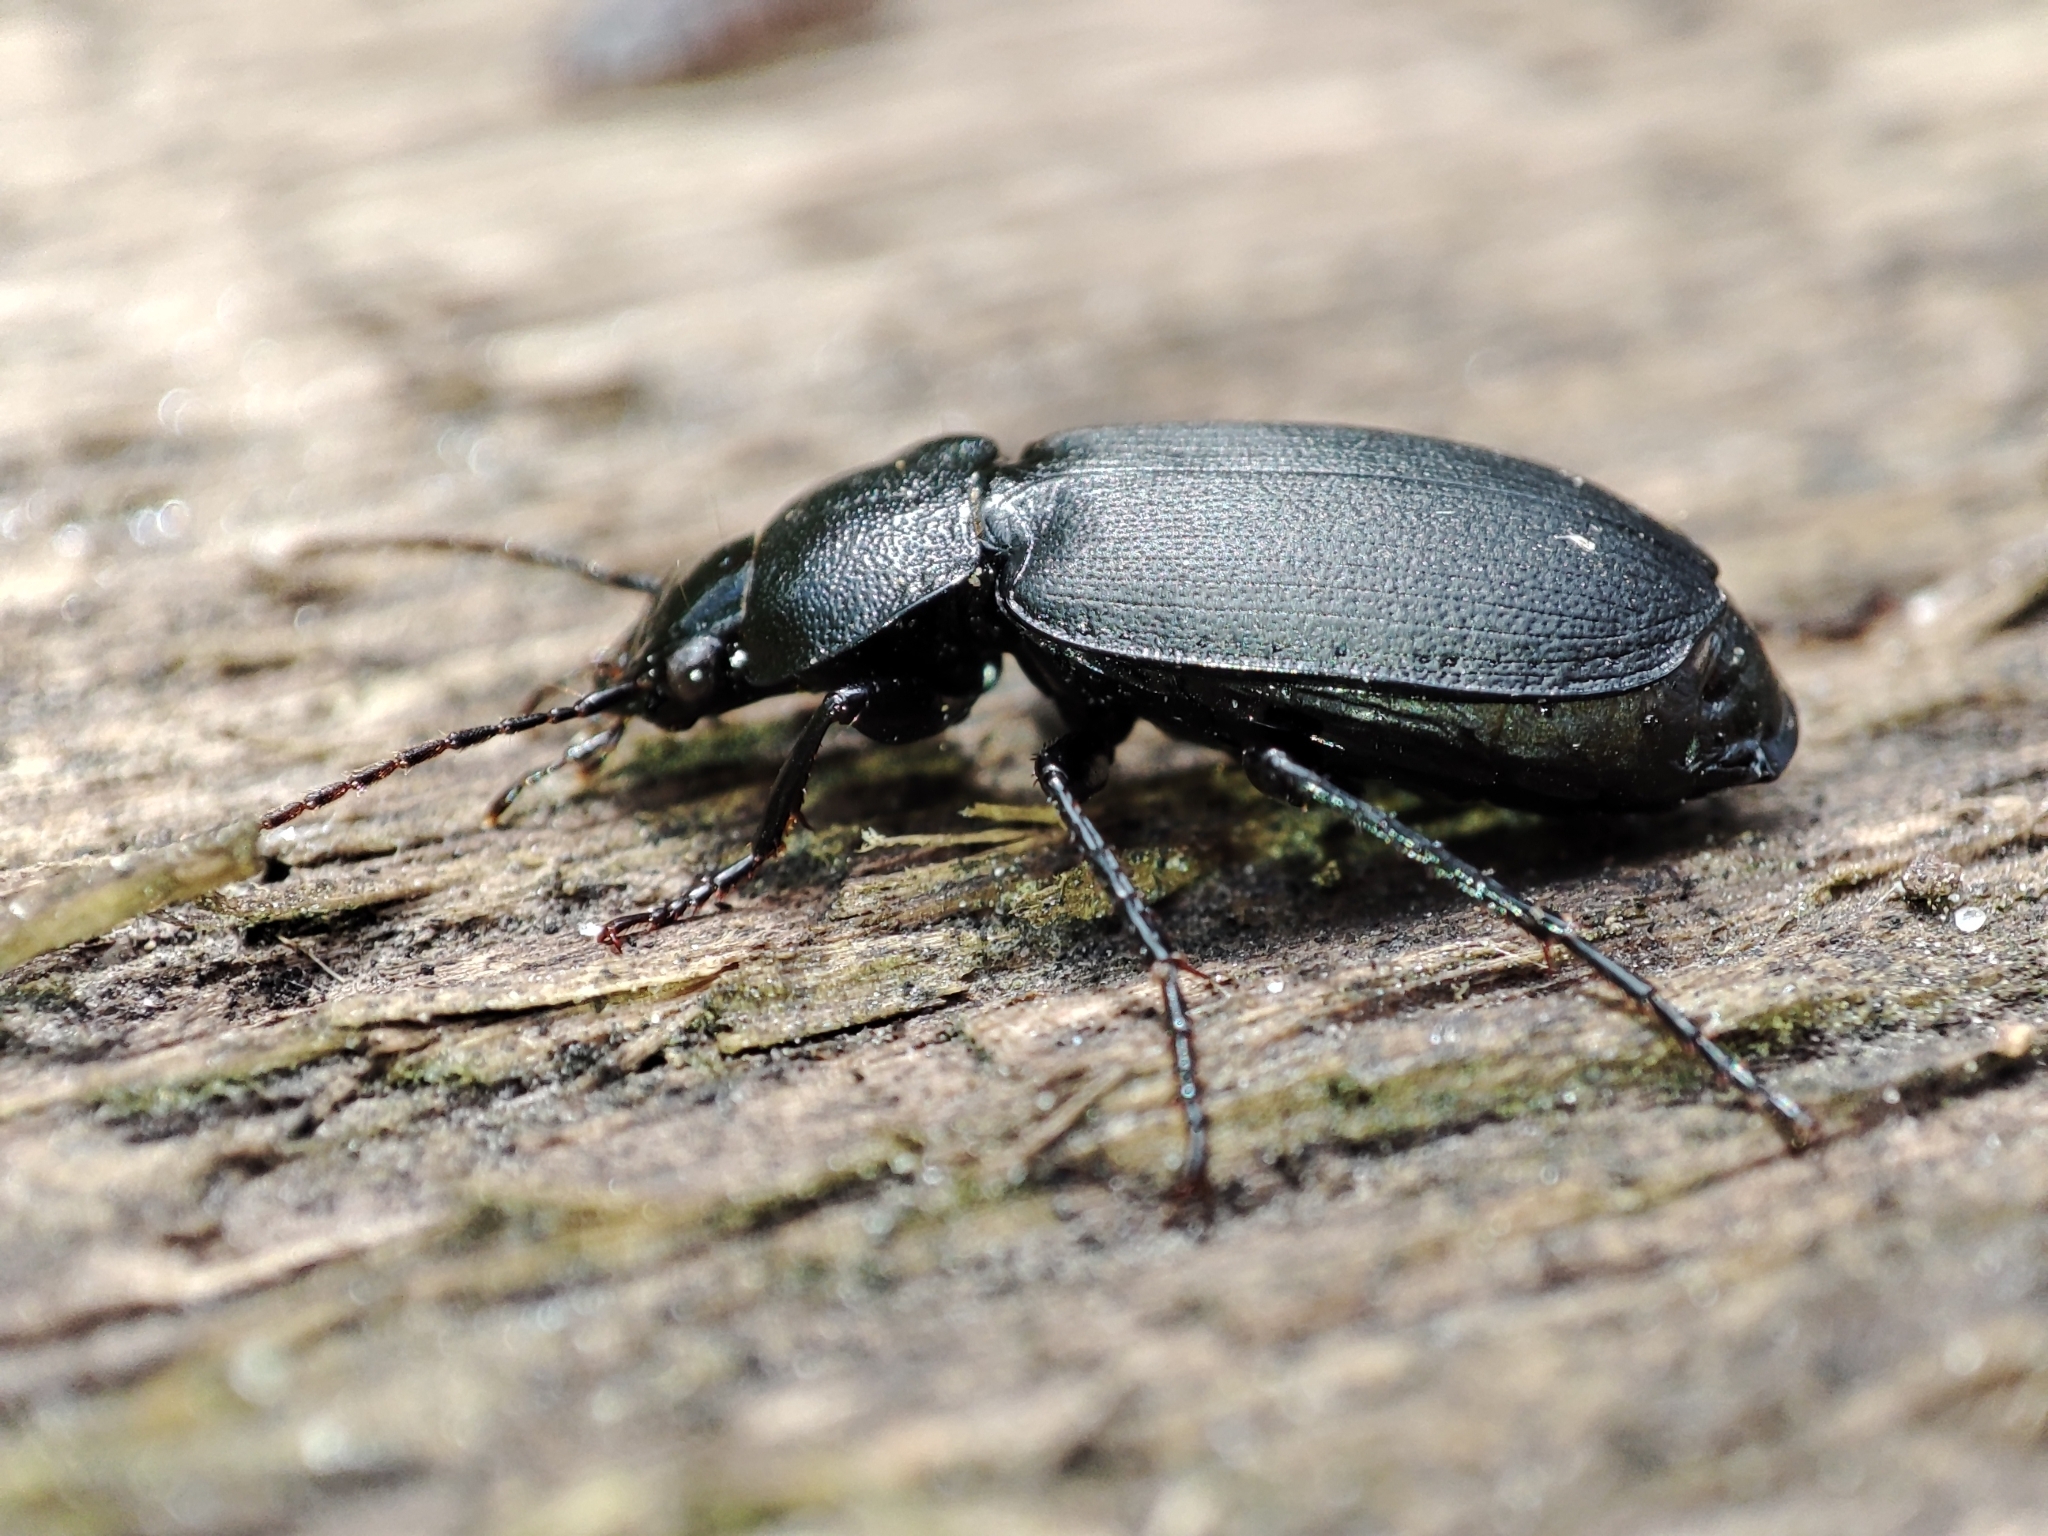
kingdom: Animalia
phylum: Arthropoda
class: Insecta
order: Coleoptera
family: Carabidae
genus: Licinus
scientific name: Licinus depressus
